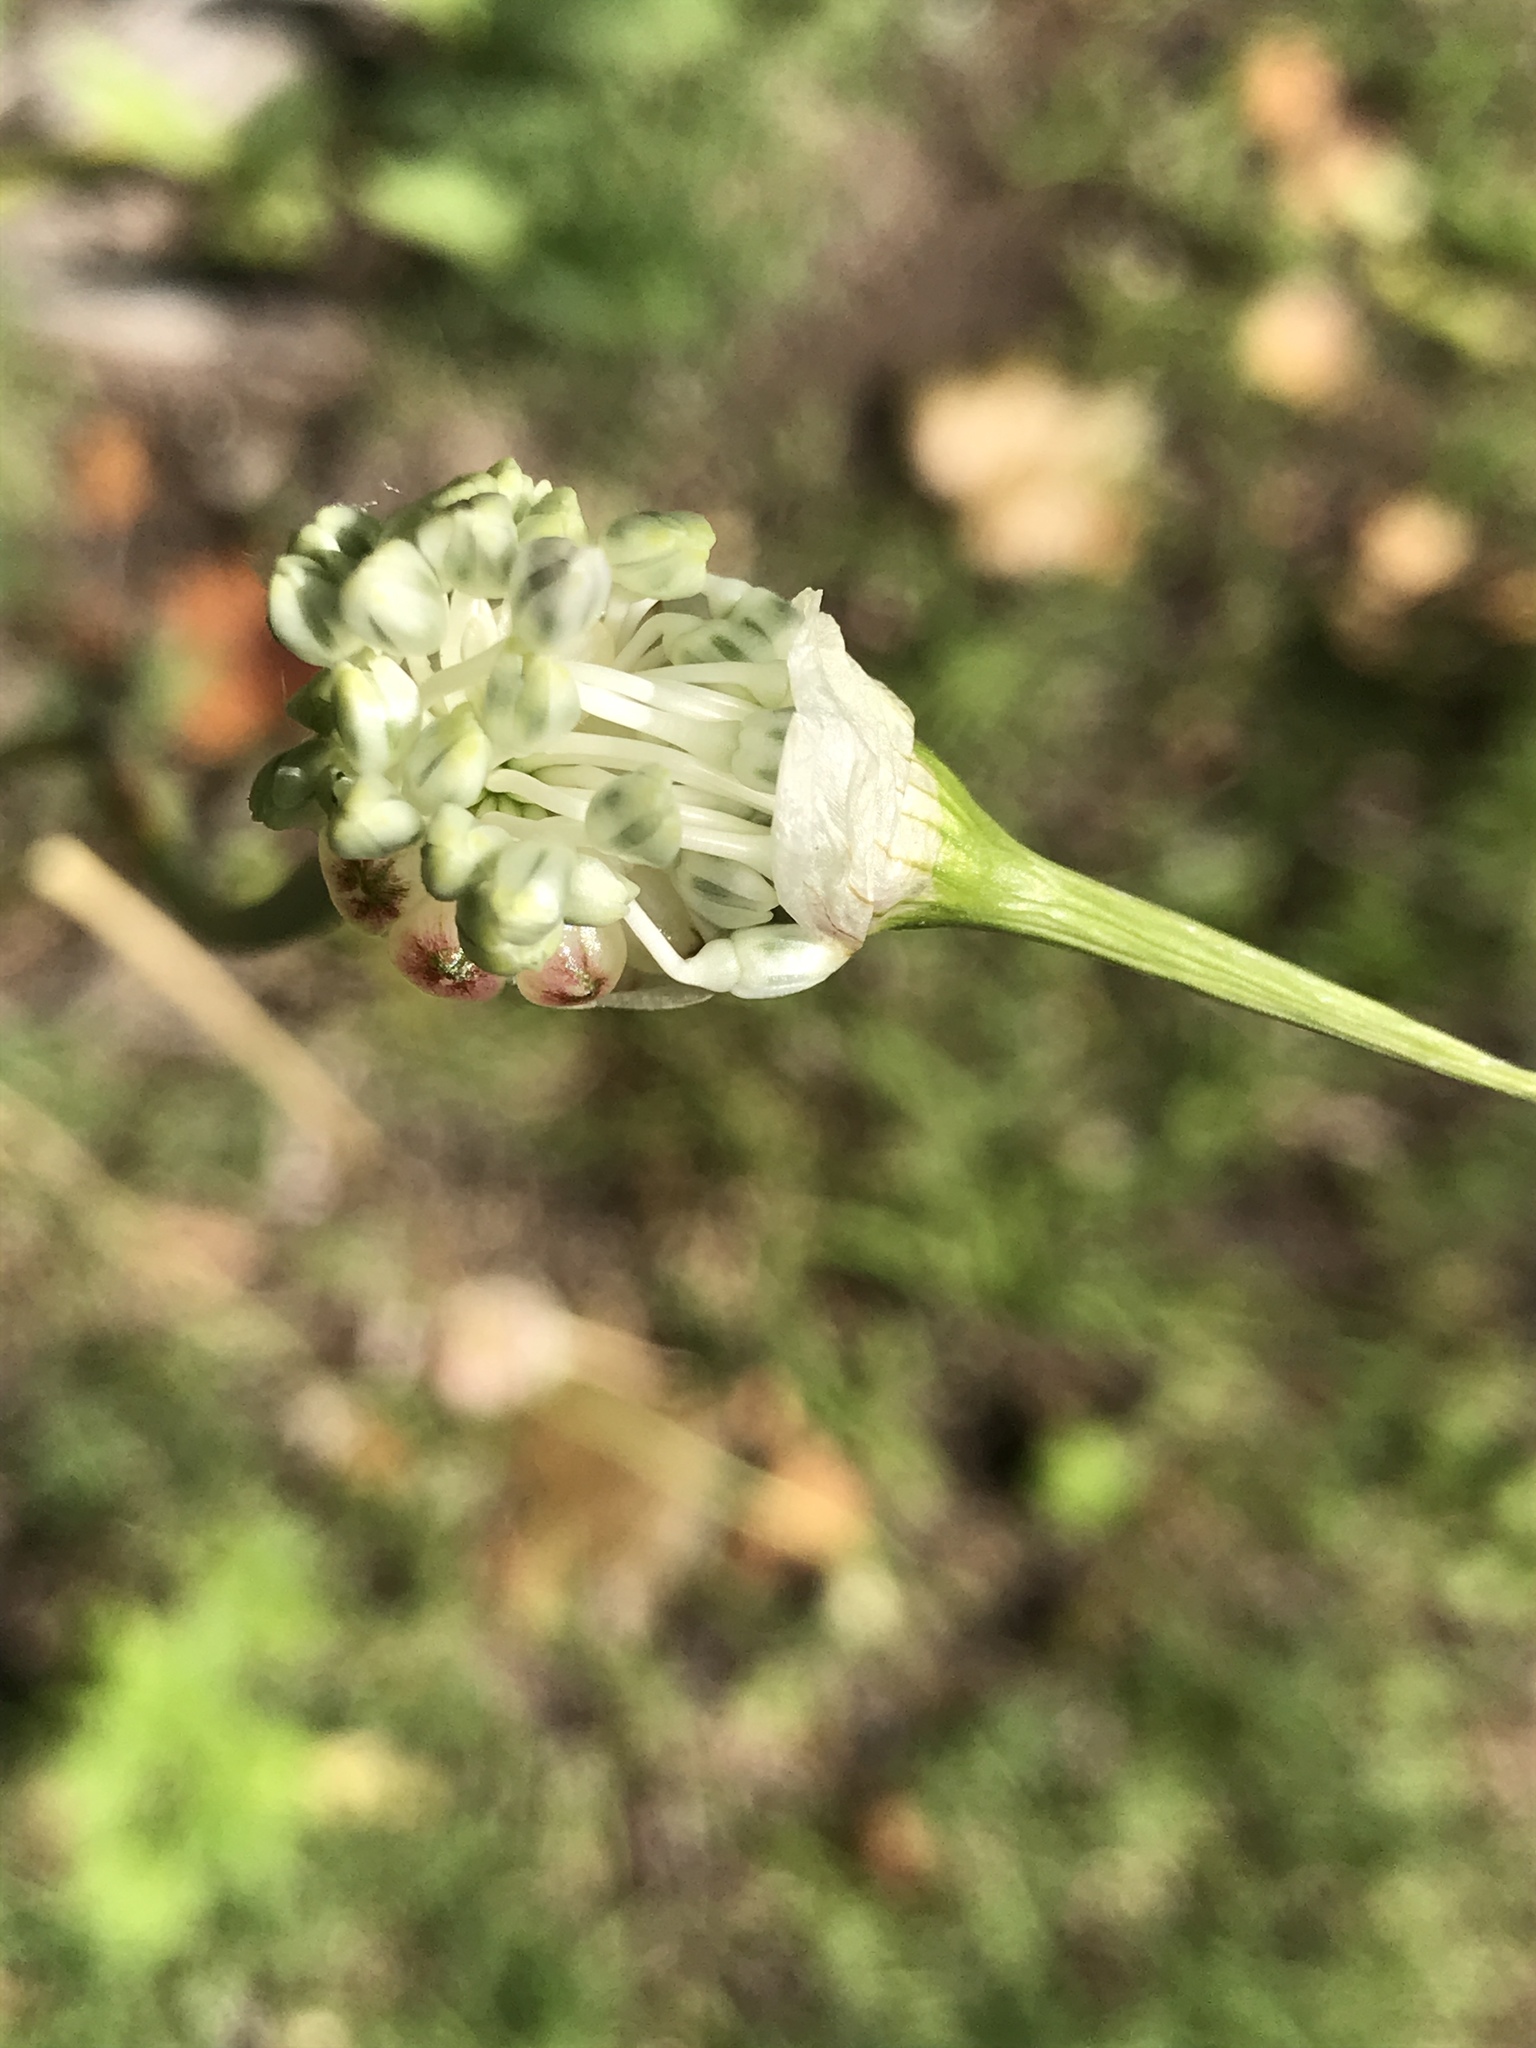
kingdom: Plantae
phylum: Tracheophyta
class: Liliopsida
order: Asparagales
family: Amaryllidaceae
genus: Allium
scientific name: Allium vineale
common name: Crow garlic
